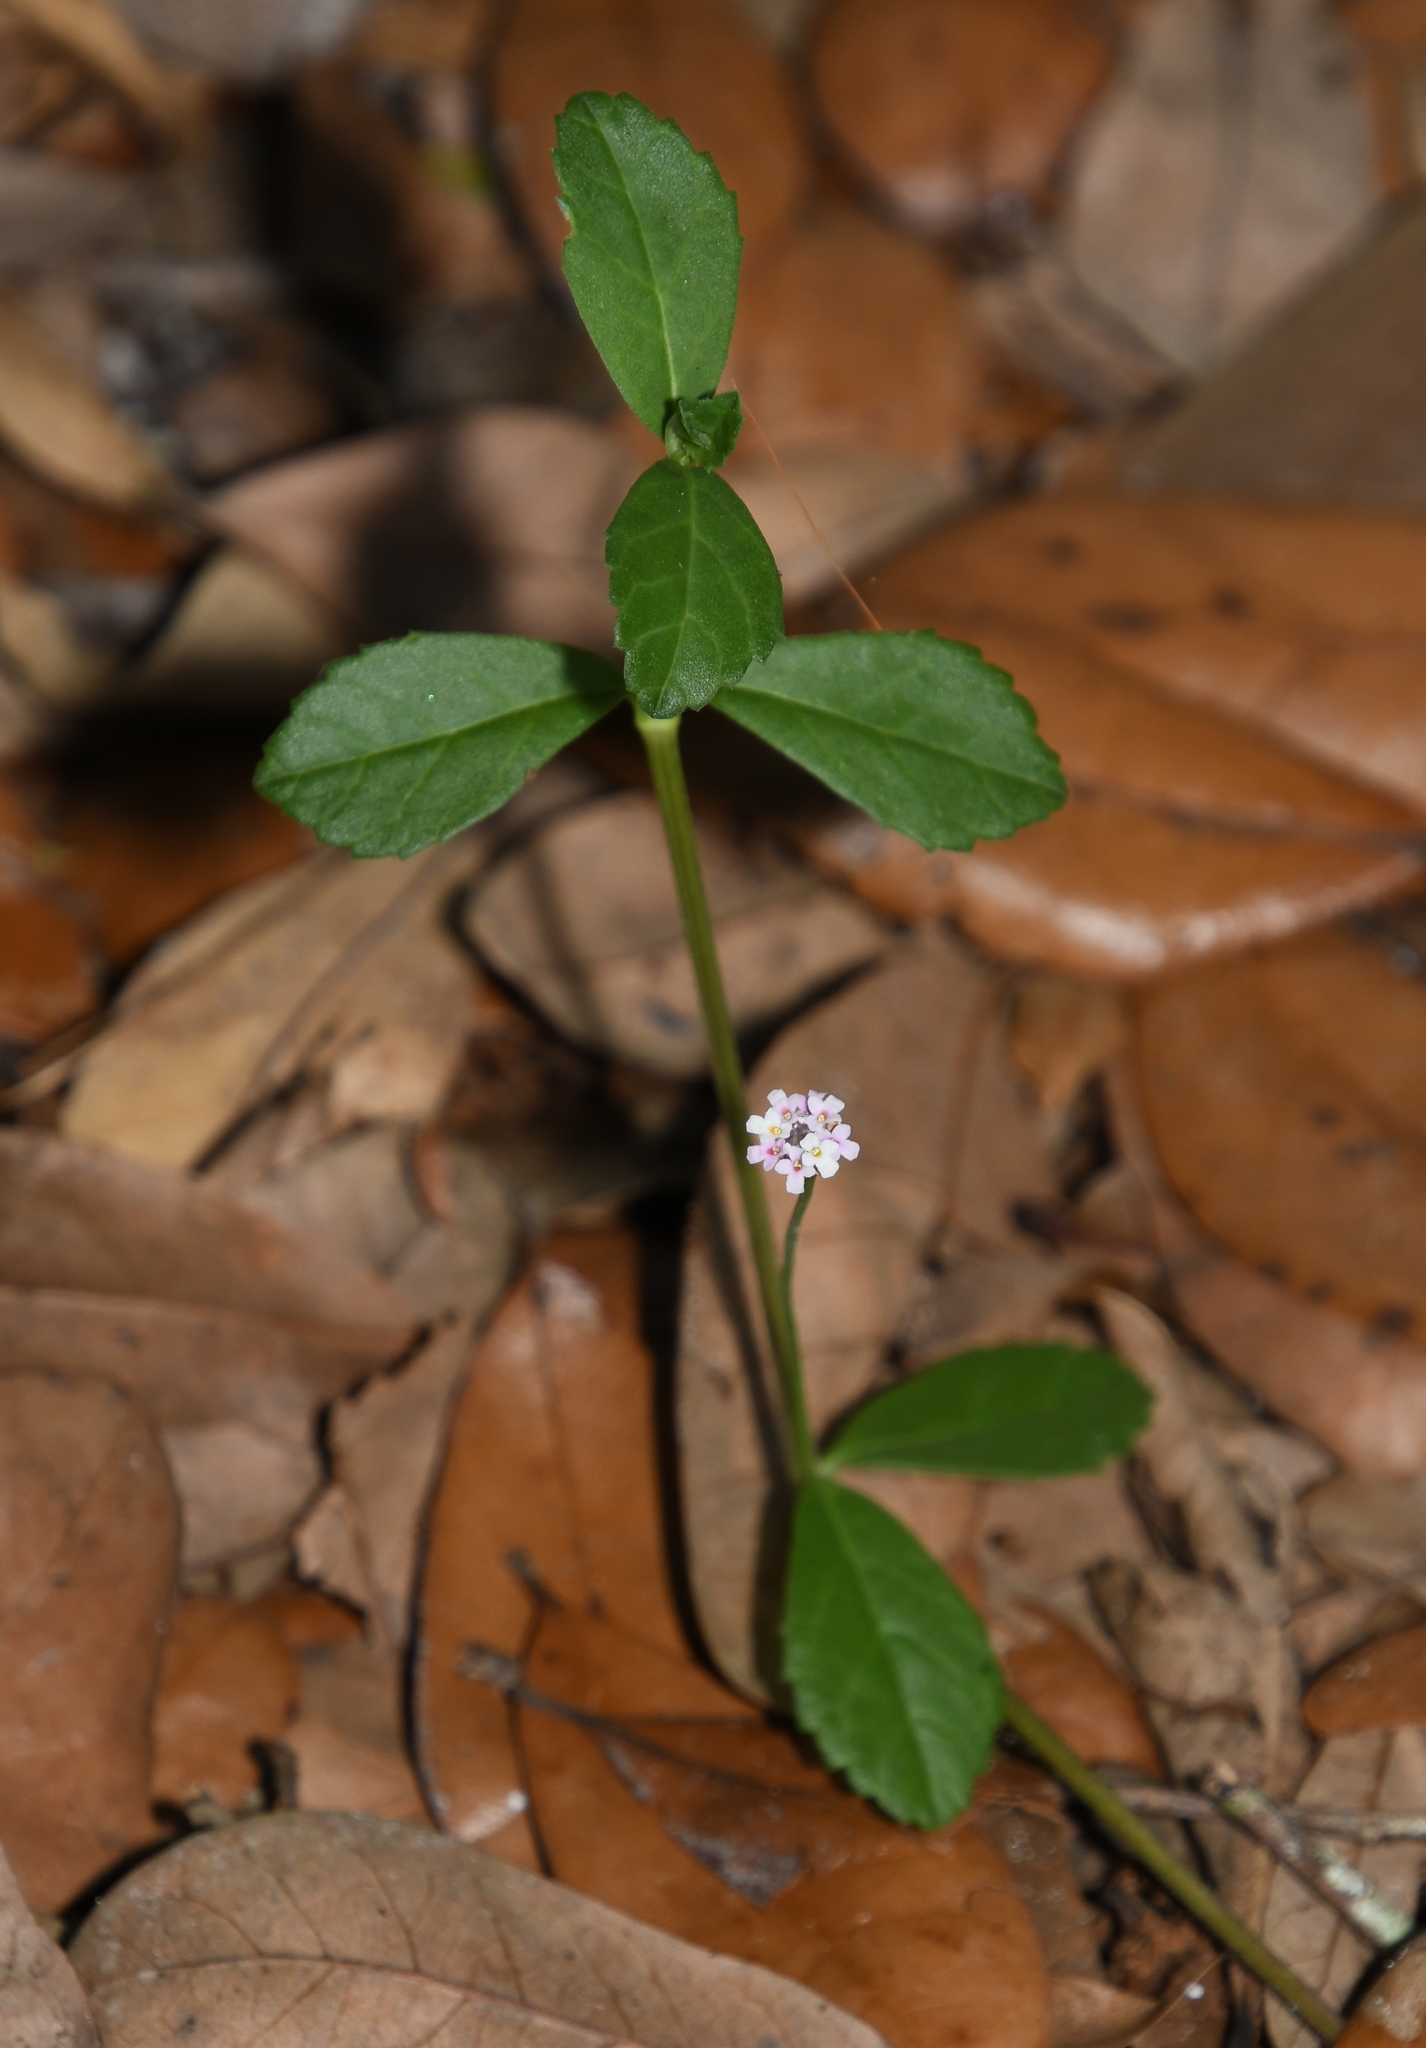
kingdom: Plantae
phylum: Tracheophyta
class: Magnoliopsida
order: Lamiales
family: Verbenaceae
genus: Phyla
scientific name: Phyla nodiflora
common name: Frogfruit
